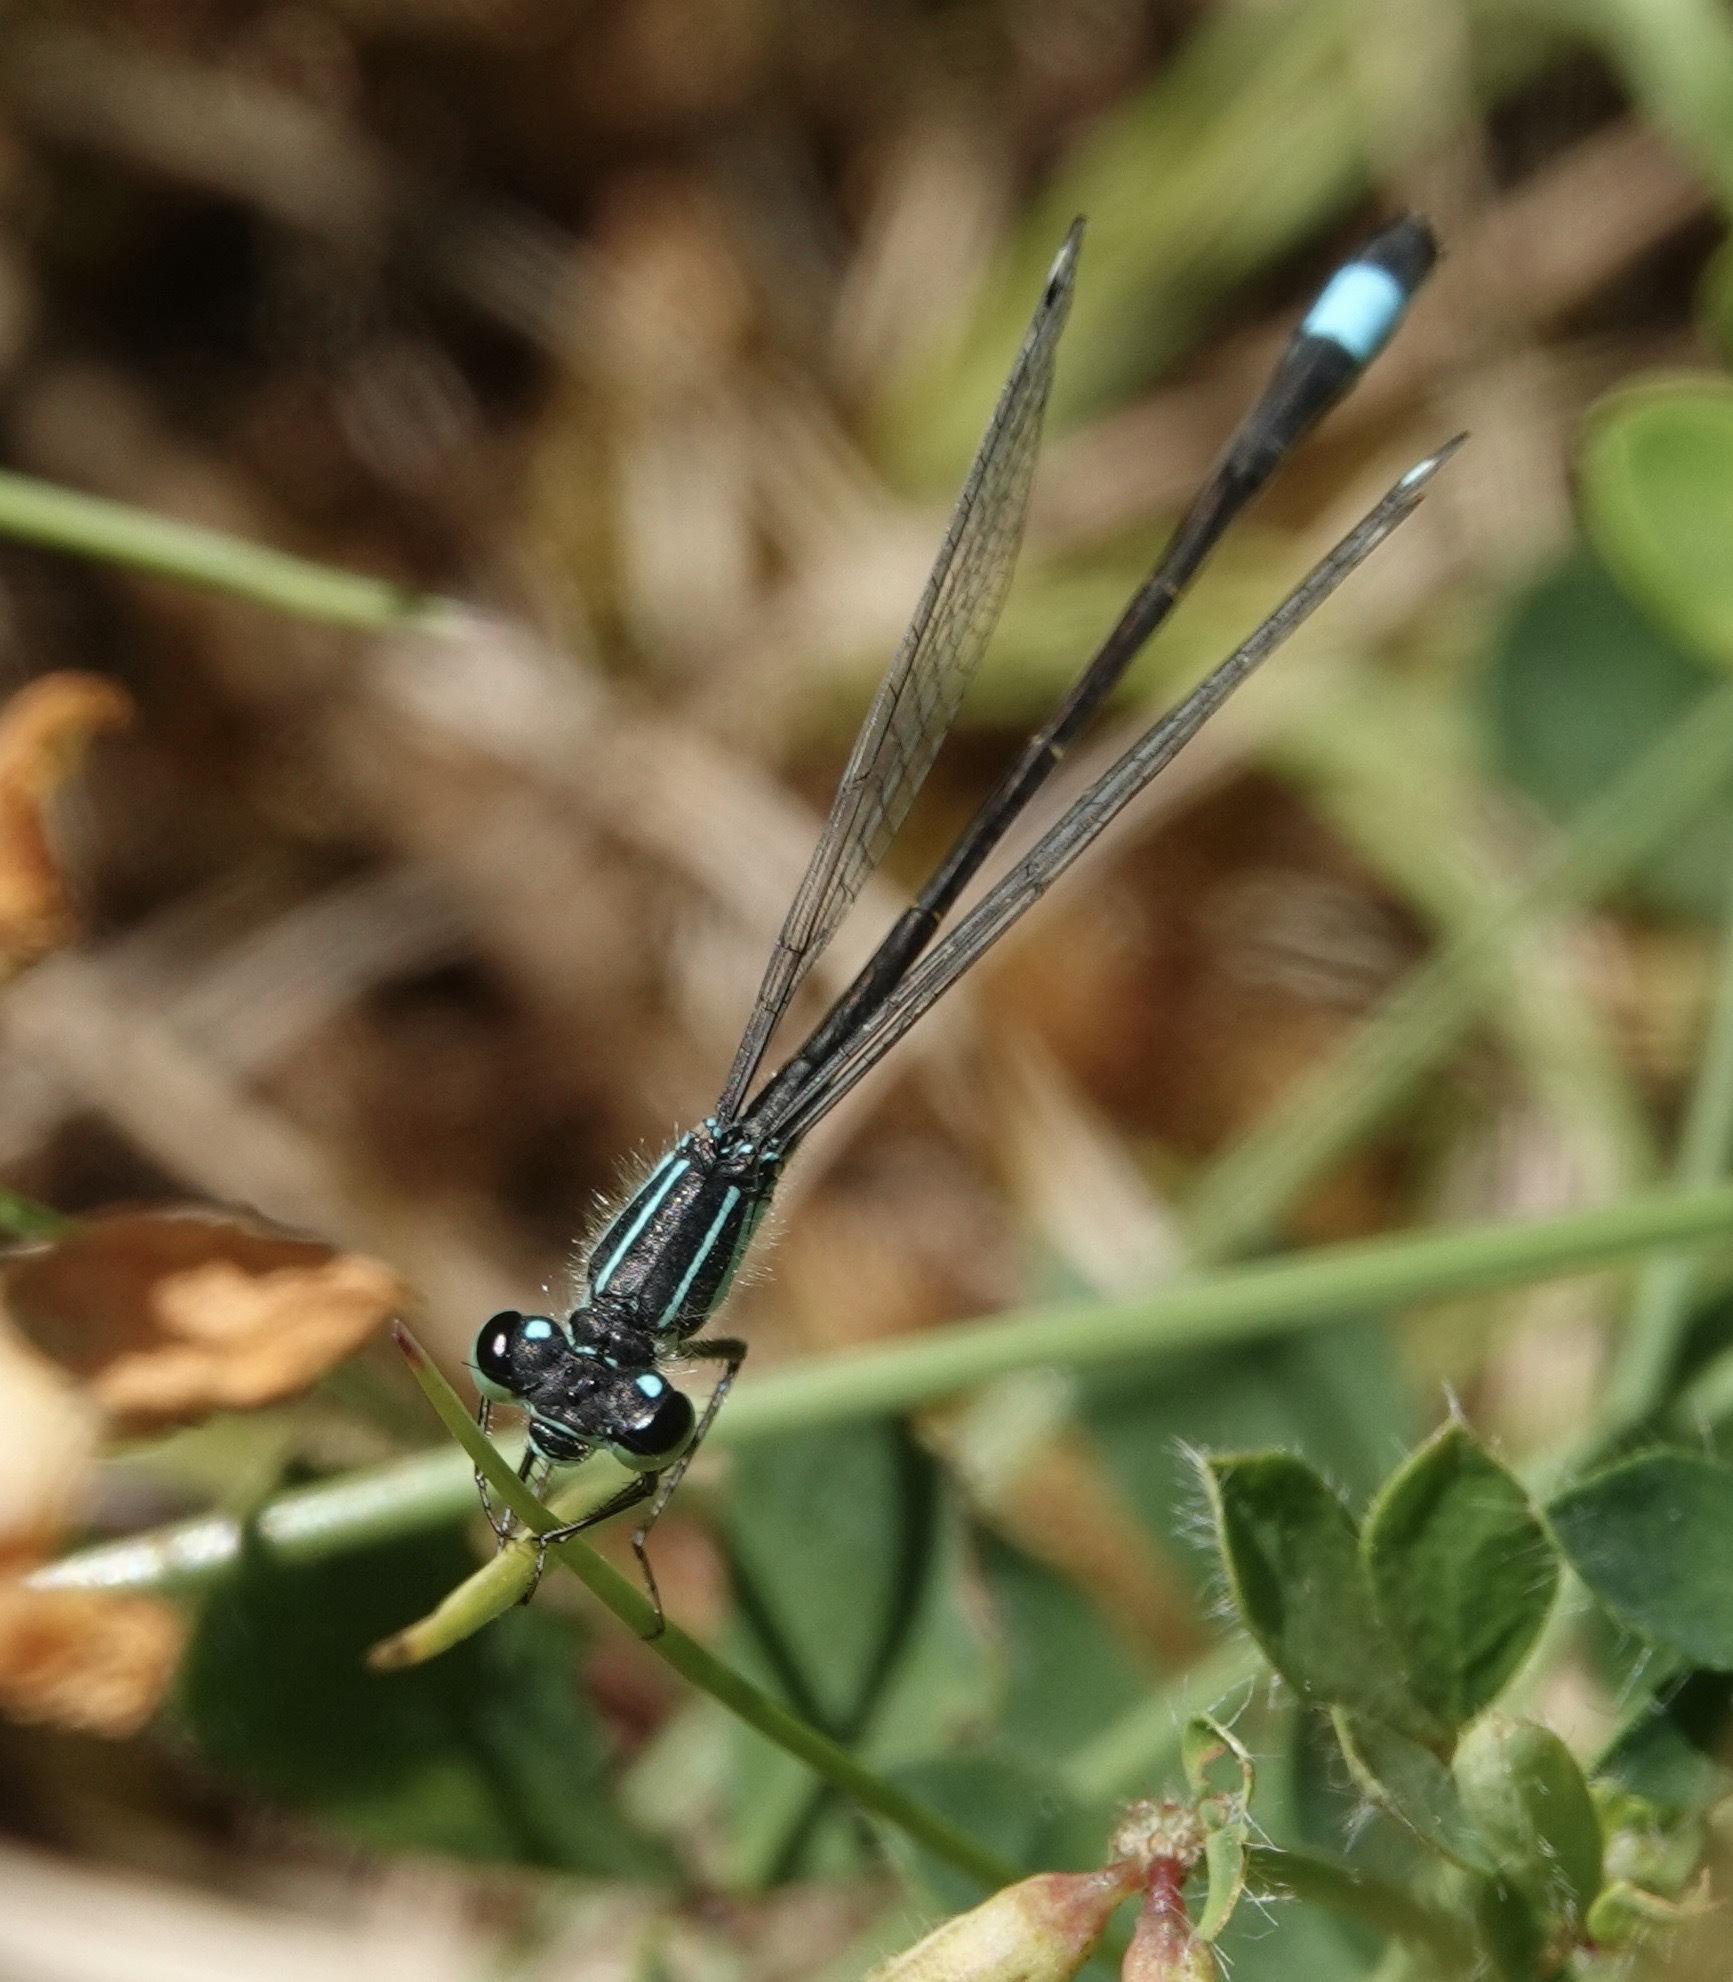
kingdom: Animalia
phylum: Arthropoda
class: Insecta
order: Odonata
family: Coenagrionidae
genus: Ischnura
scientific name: Ischnura elegans
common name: Blue-tailed damselfly
